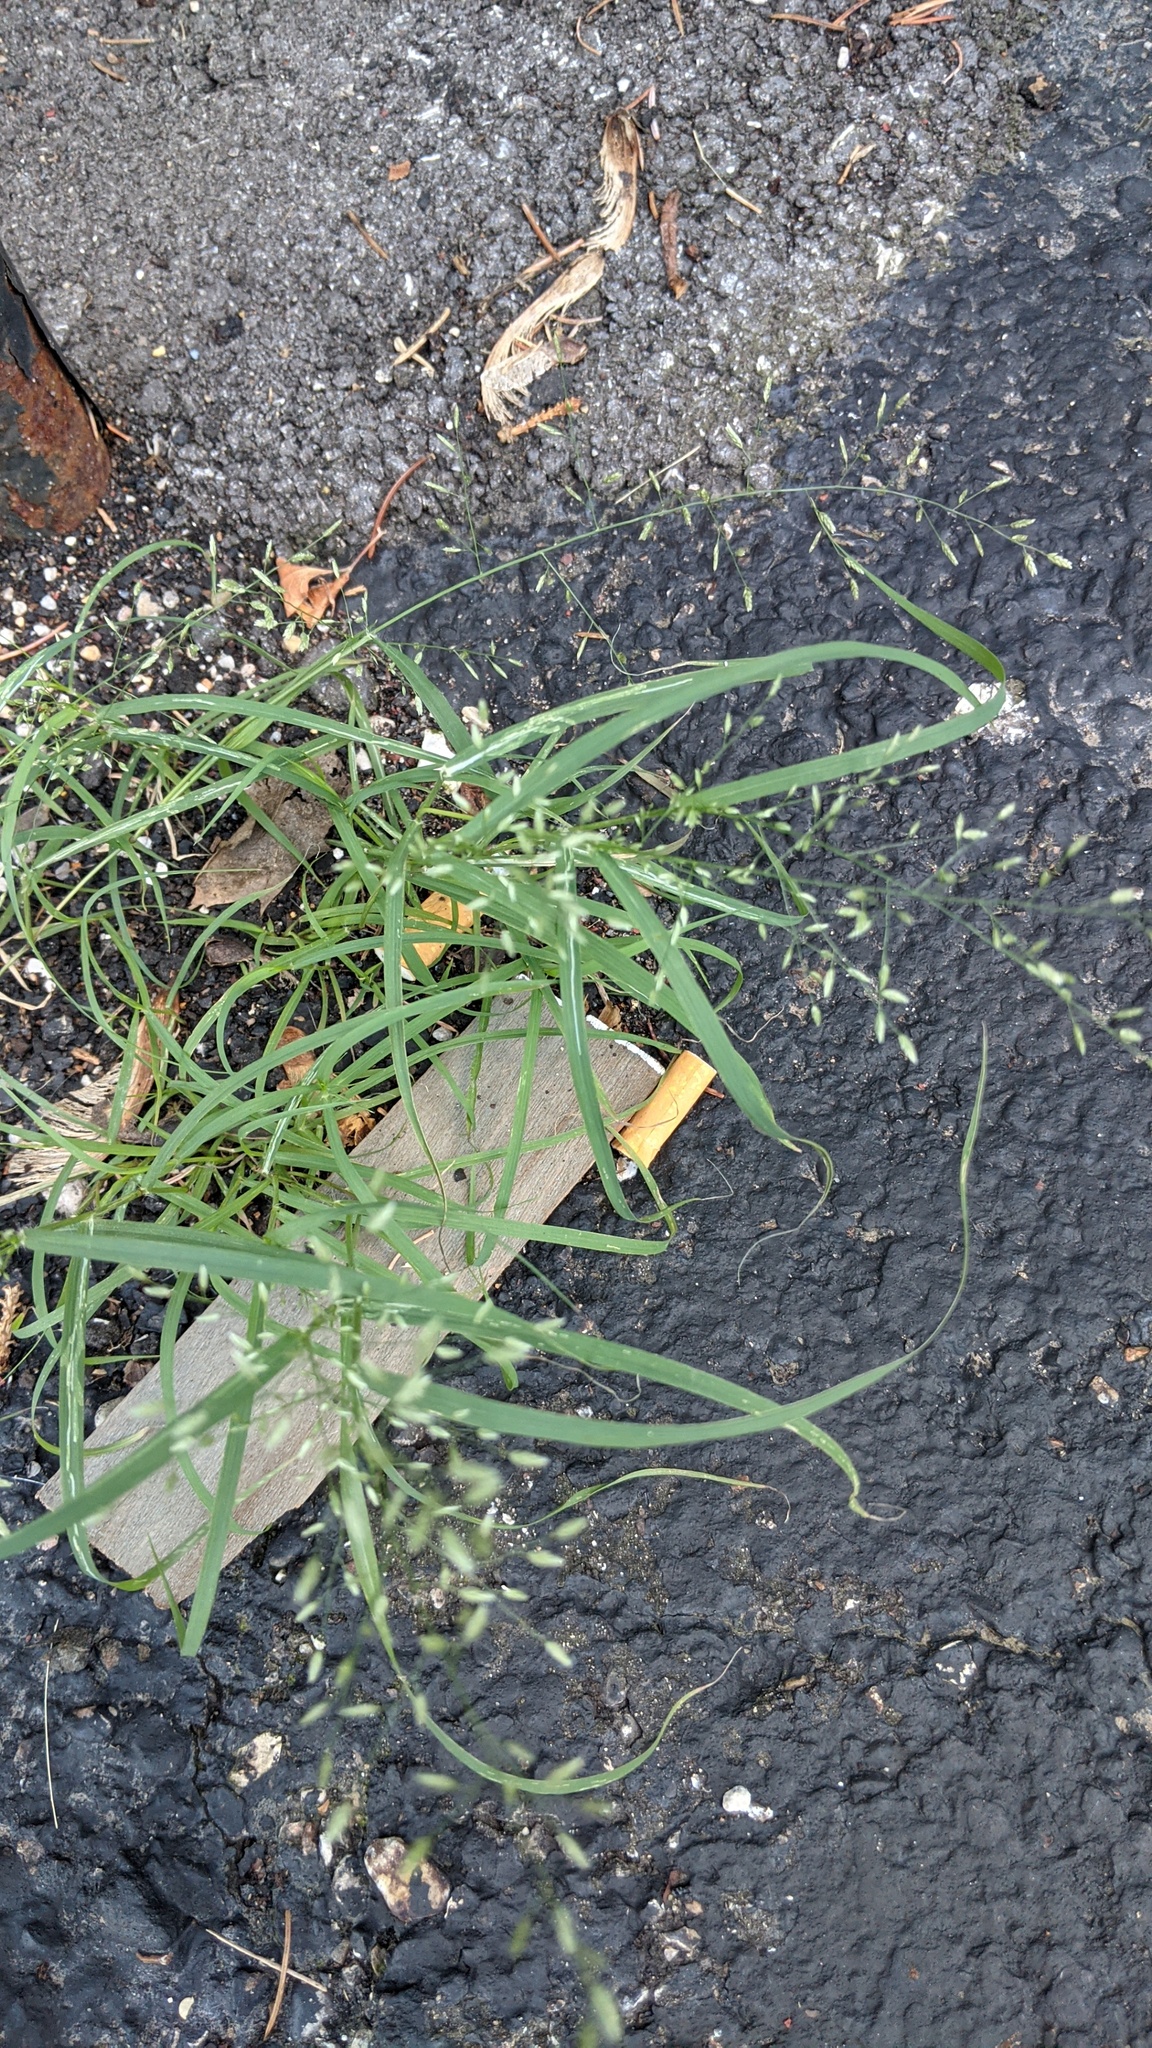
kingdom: Animalia
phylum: Arthropoda
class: Insecta
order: Diptera
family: Agromyzidae
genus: Cerodontha
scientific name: Cerodontha dorsalis
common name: Grass sheathminer fly
